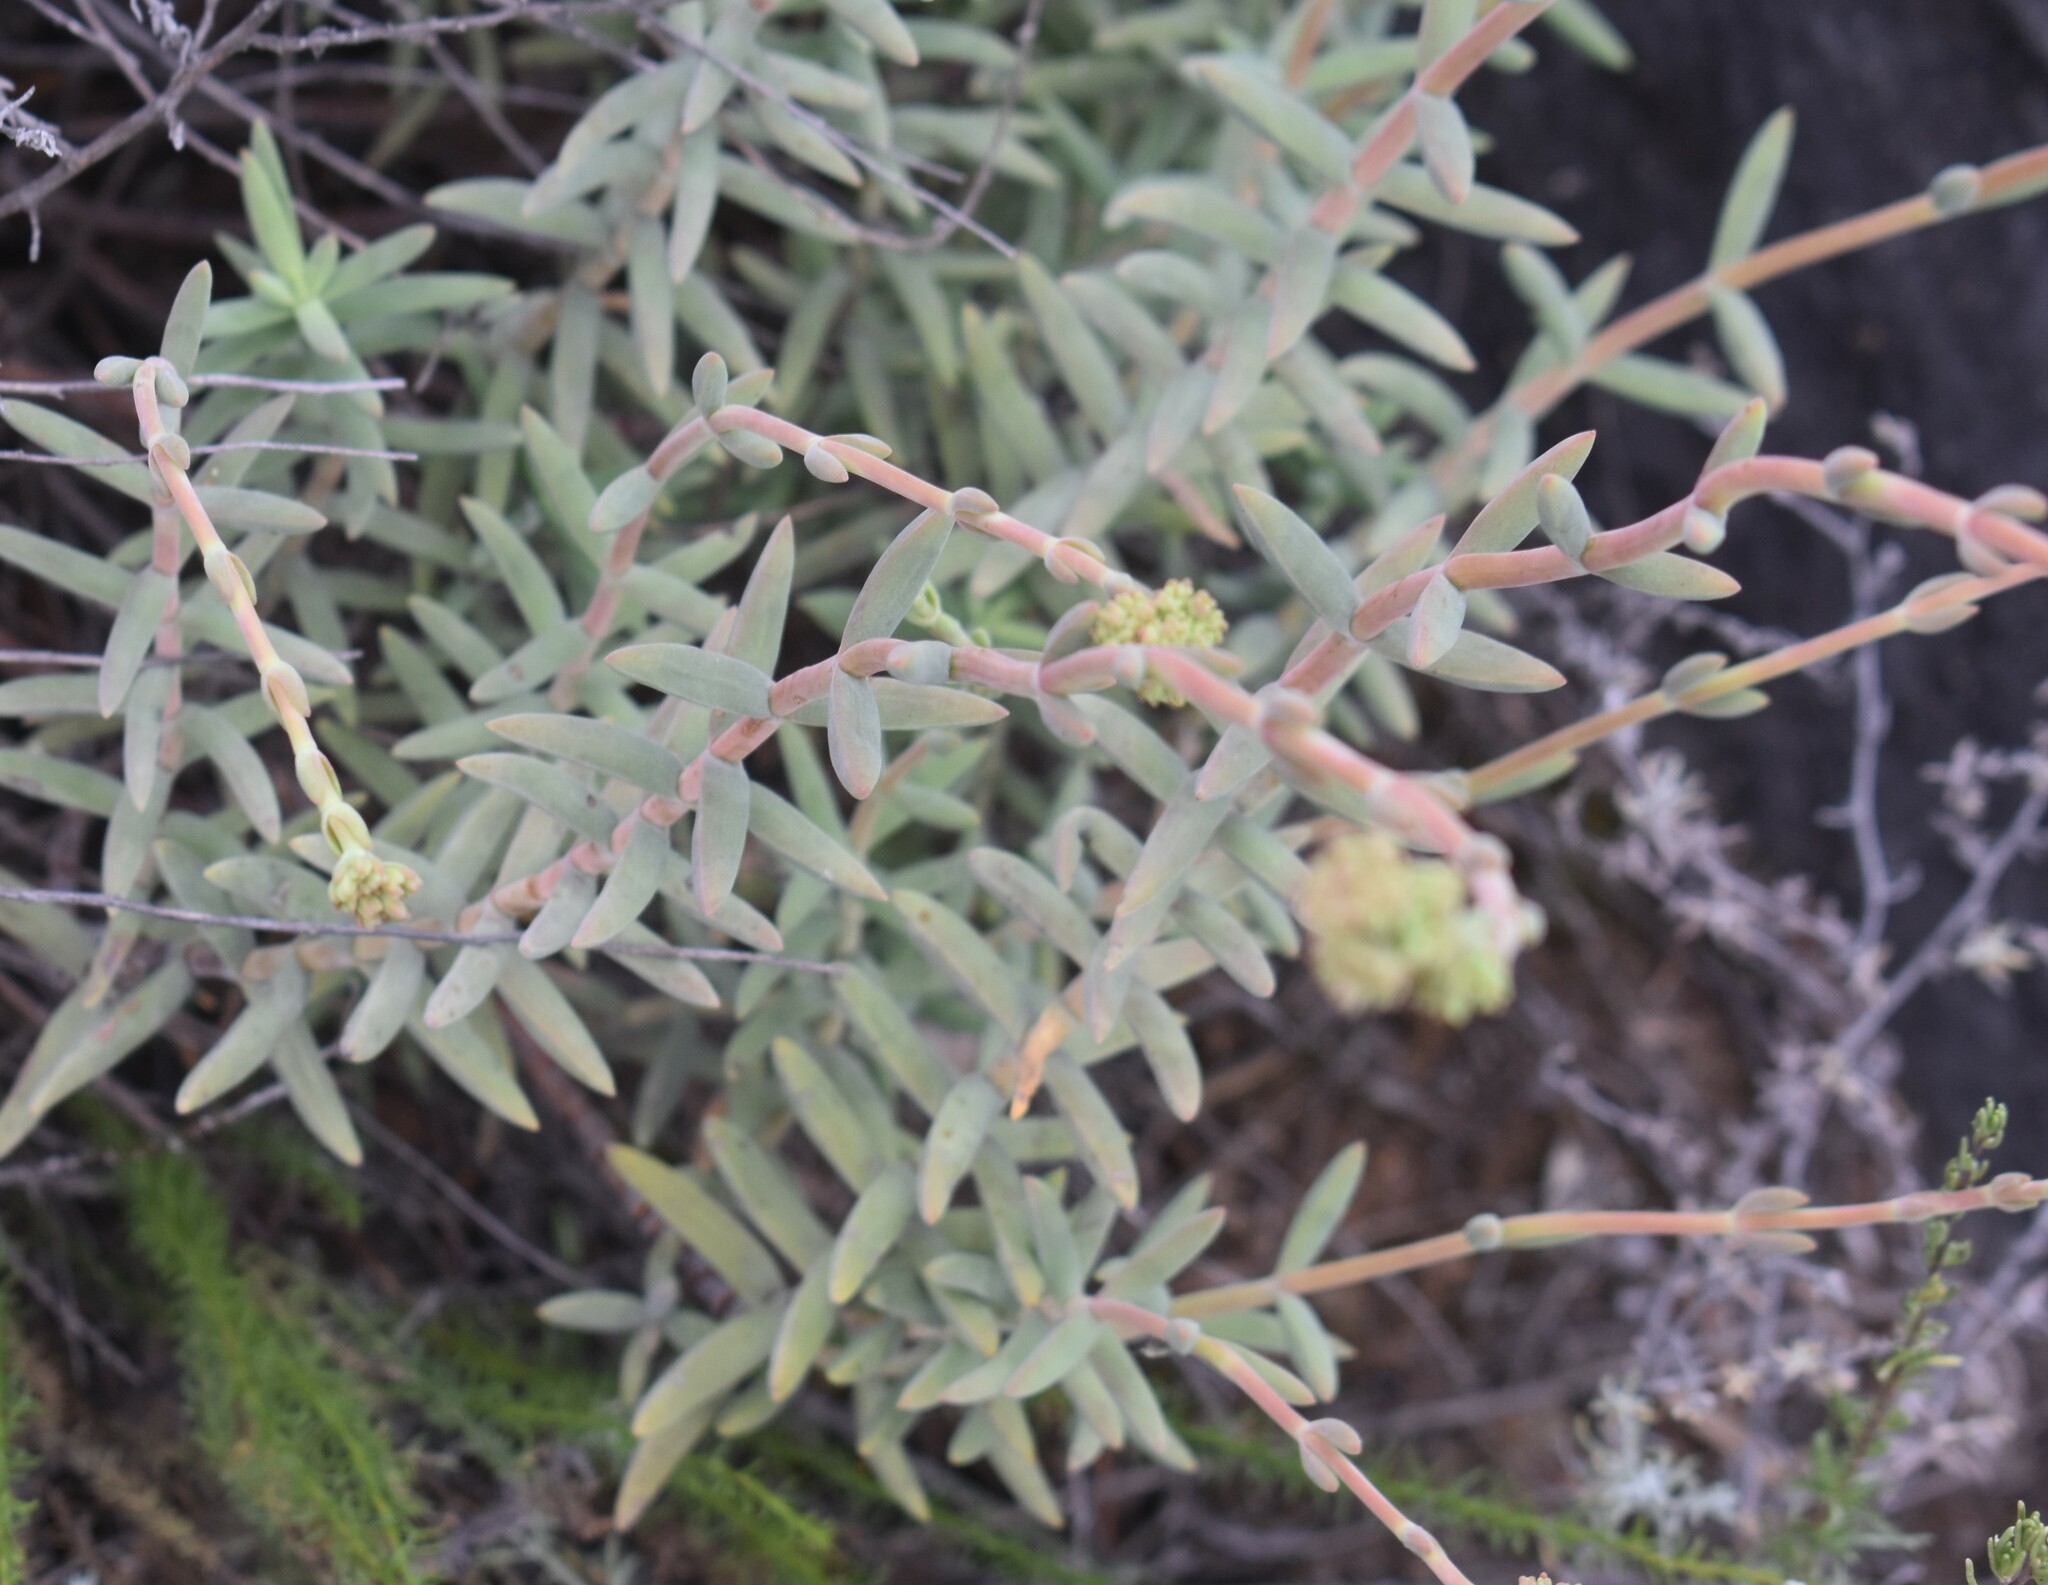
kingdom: Plantae
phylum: Tracheophyta
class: Magnoliopsida
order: Saxifragales
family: Crassulaceae
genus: Crassula
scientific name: Crassula mollis
